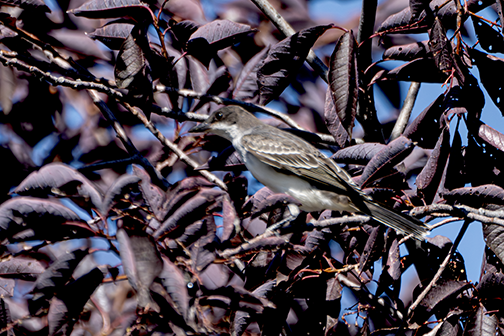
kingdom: Animalia
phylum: Chordata
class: Aves
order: Passeriformes
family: Tyrannidae
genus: Tyrannus
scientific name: Tyrannus tyrannus
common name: Eastern kingbird
